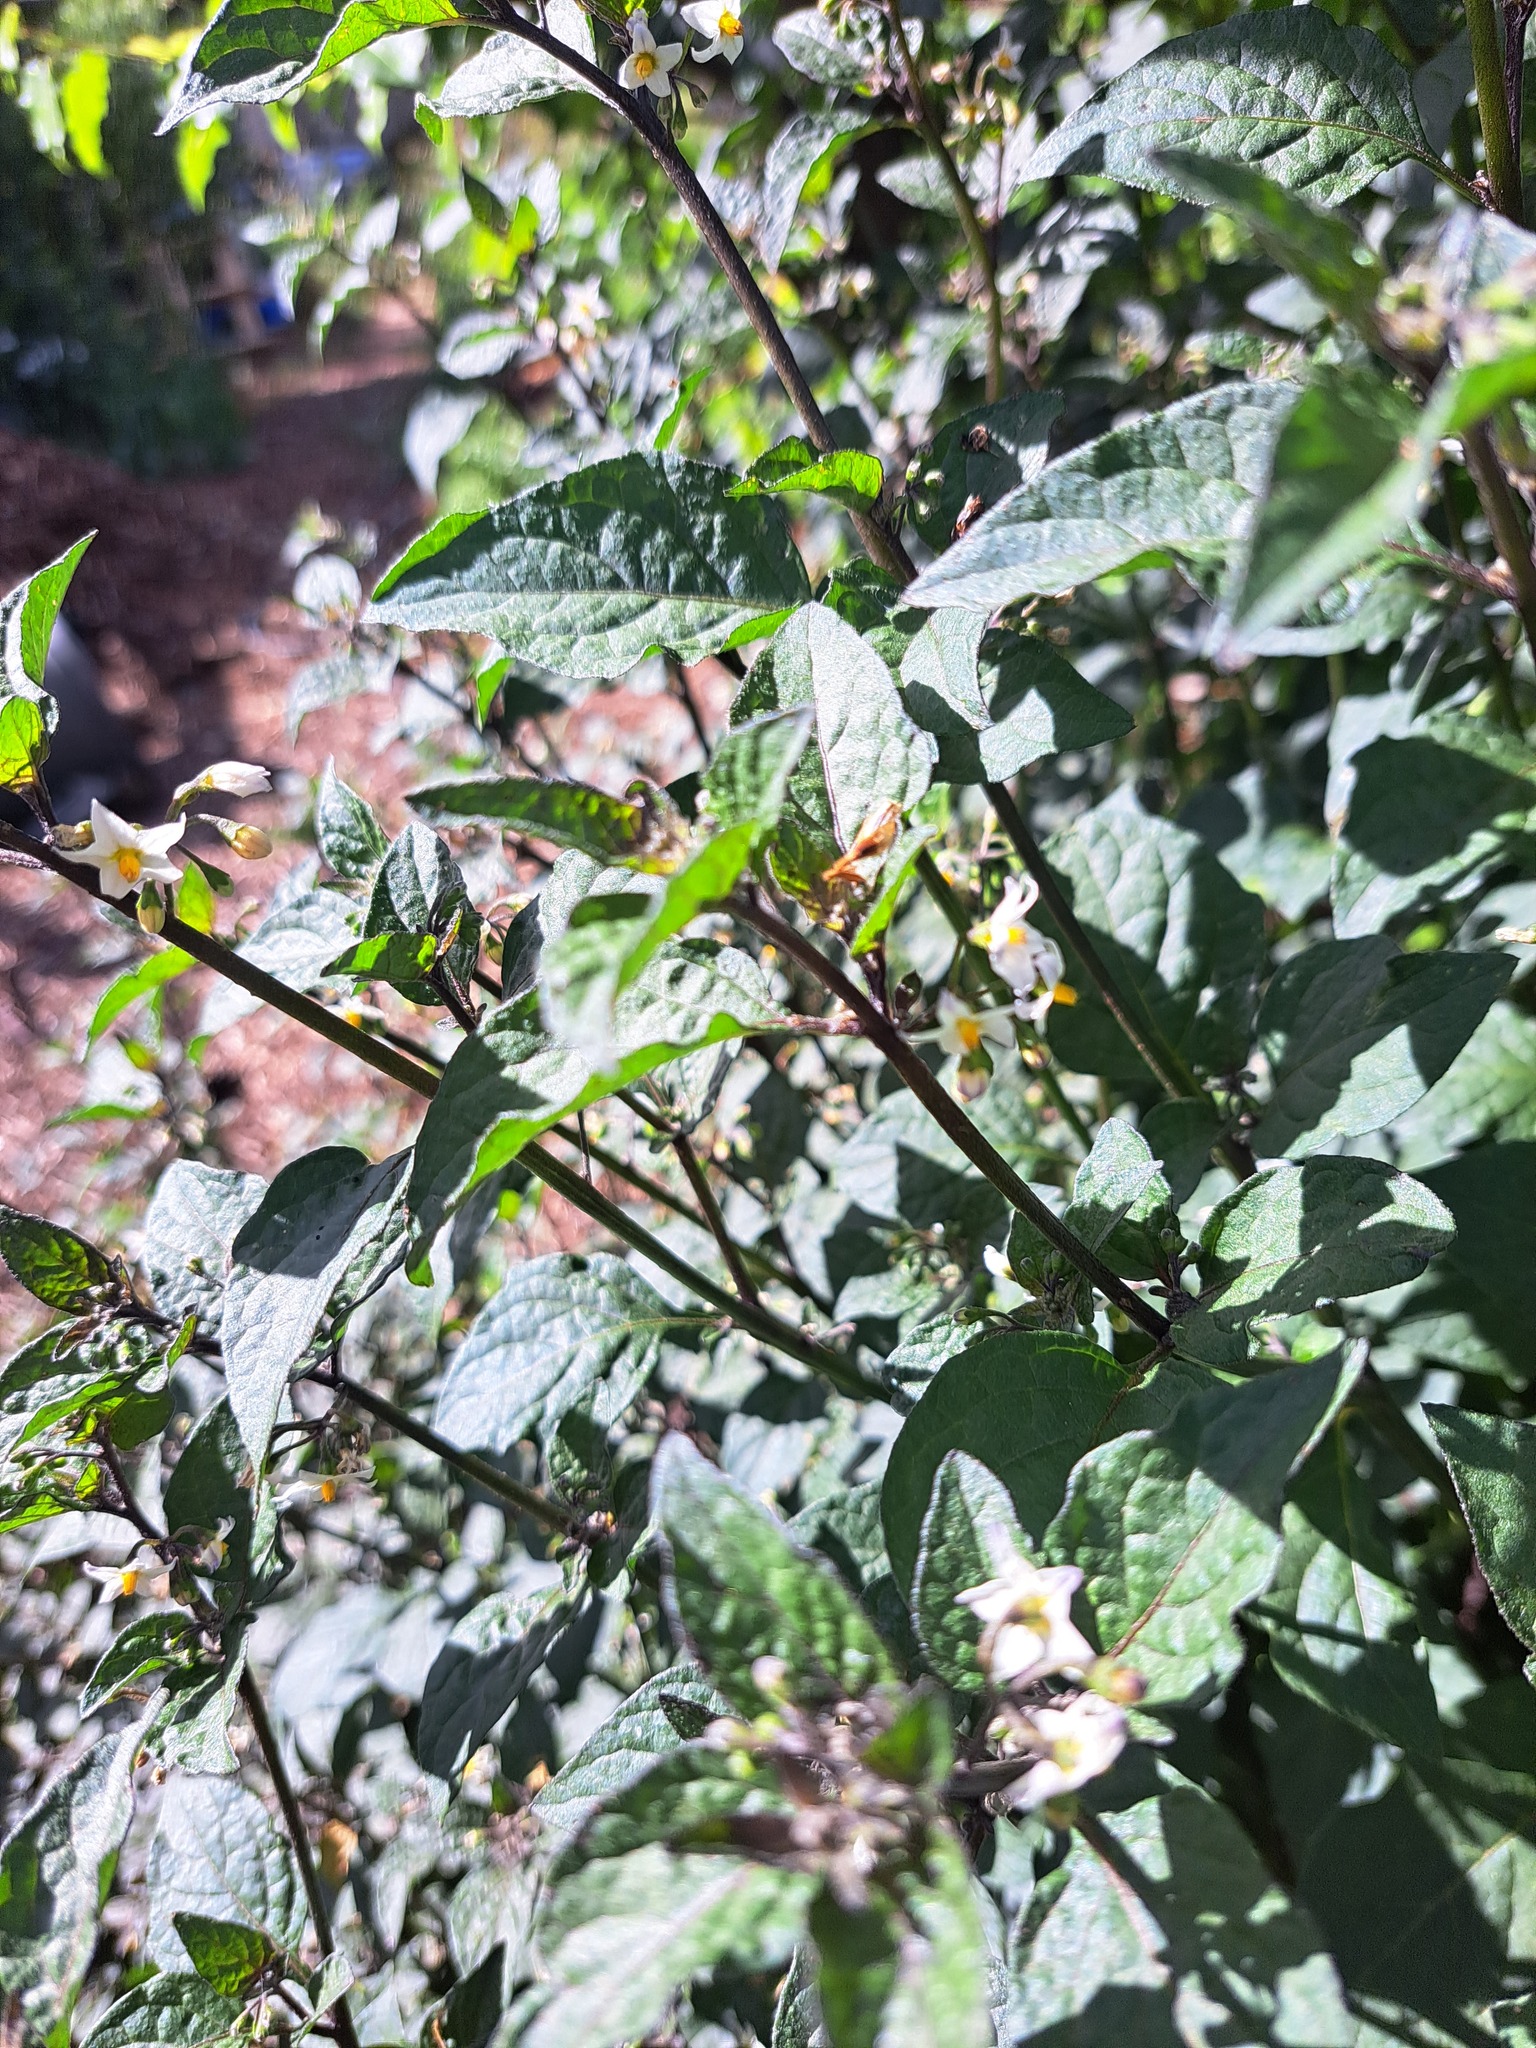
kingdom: Plantae
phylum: Tracheophyta
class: Magnoliopsida
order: Solanales
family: Solanaceae
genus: Solanum
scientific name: Solanum nigrum
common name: Black nightshade
